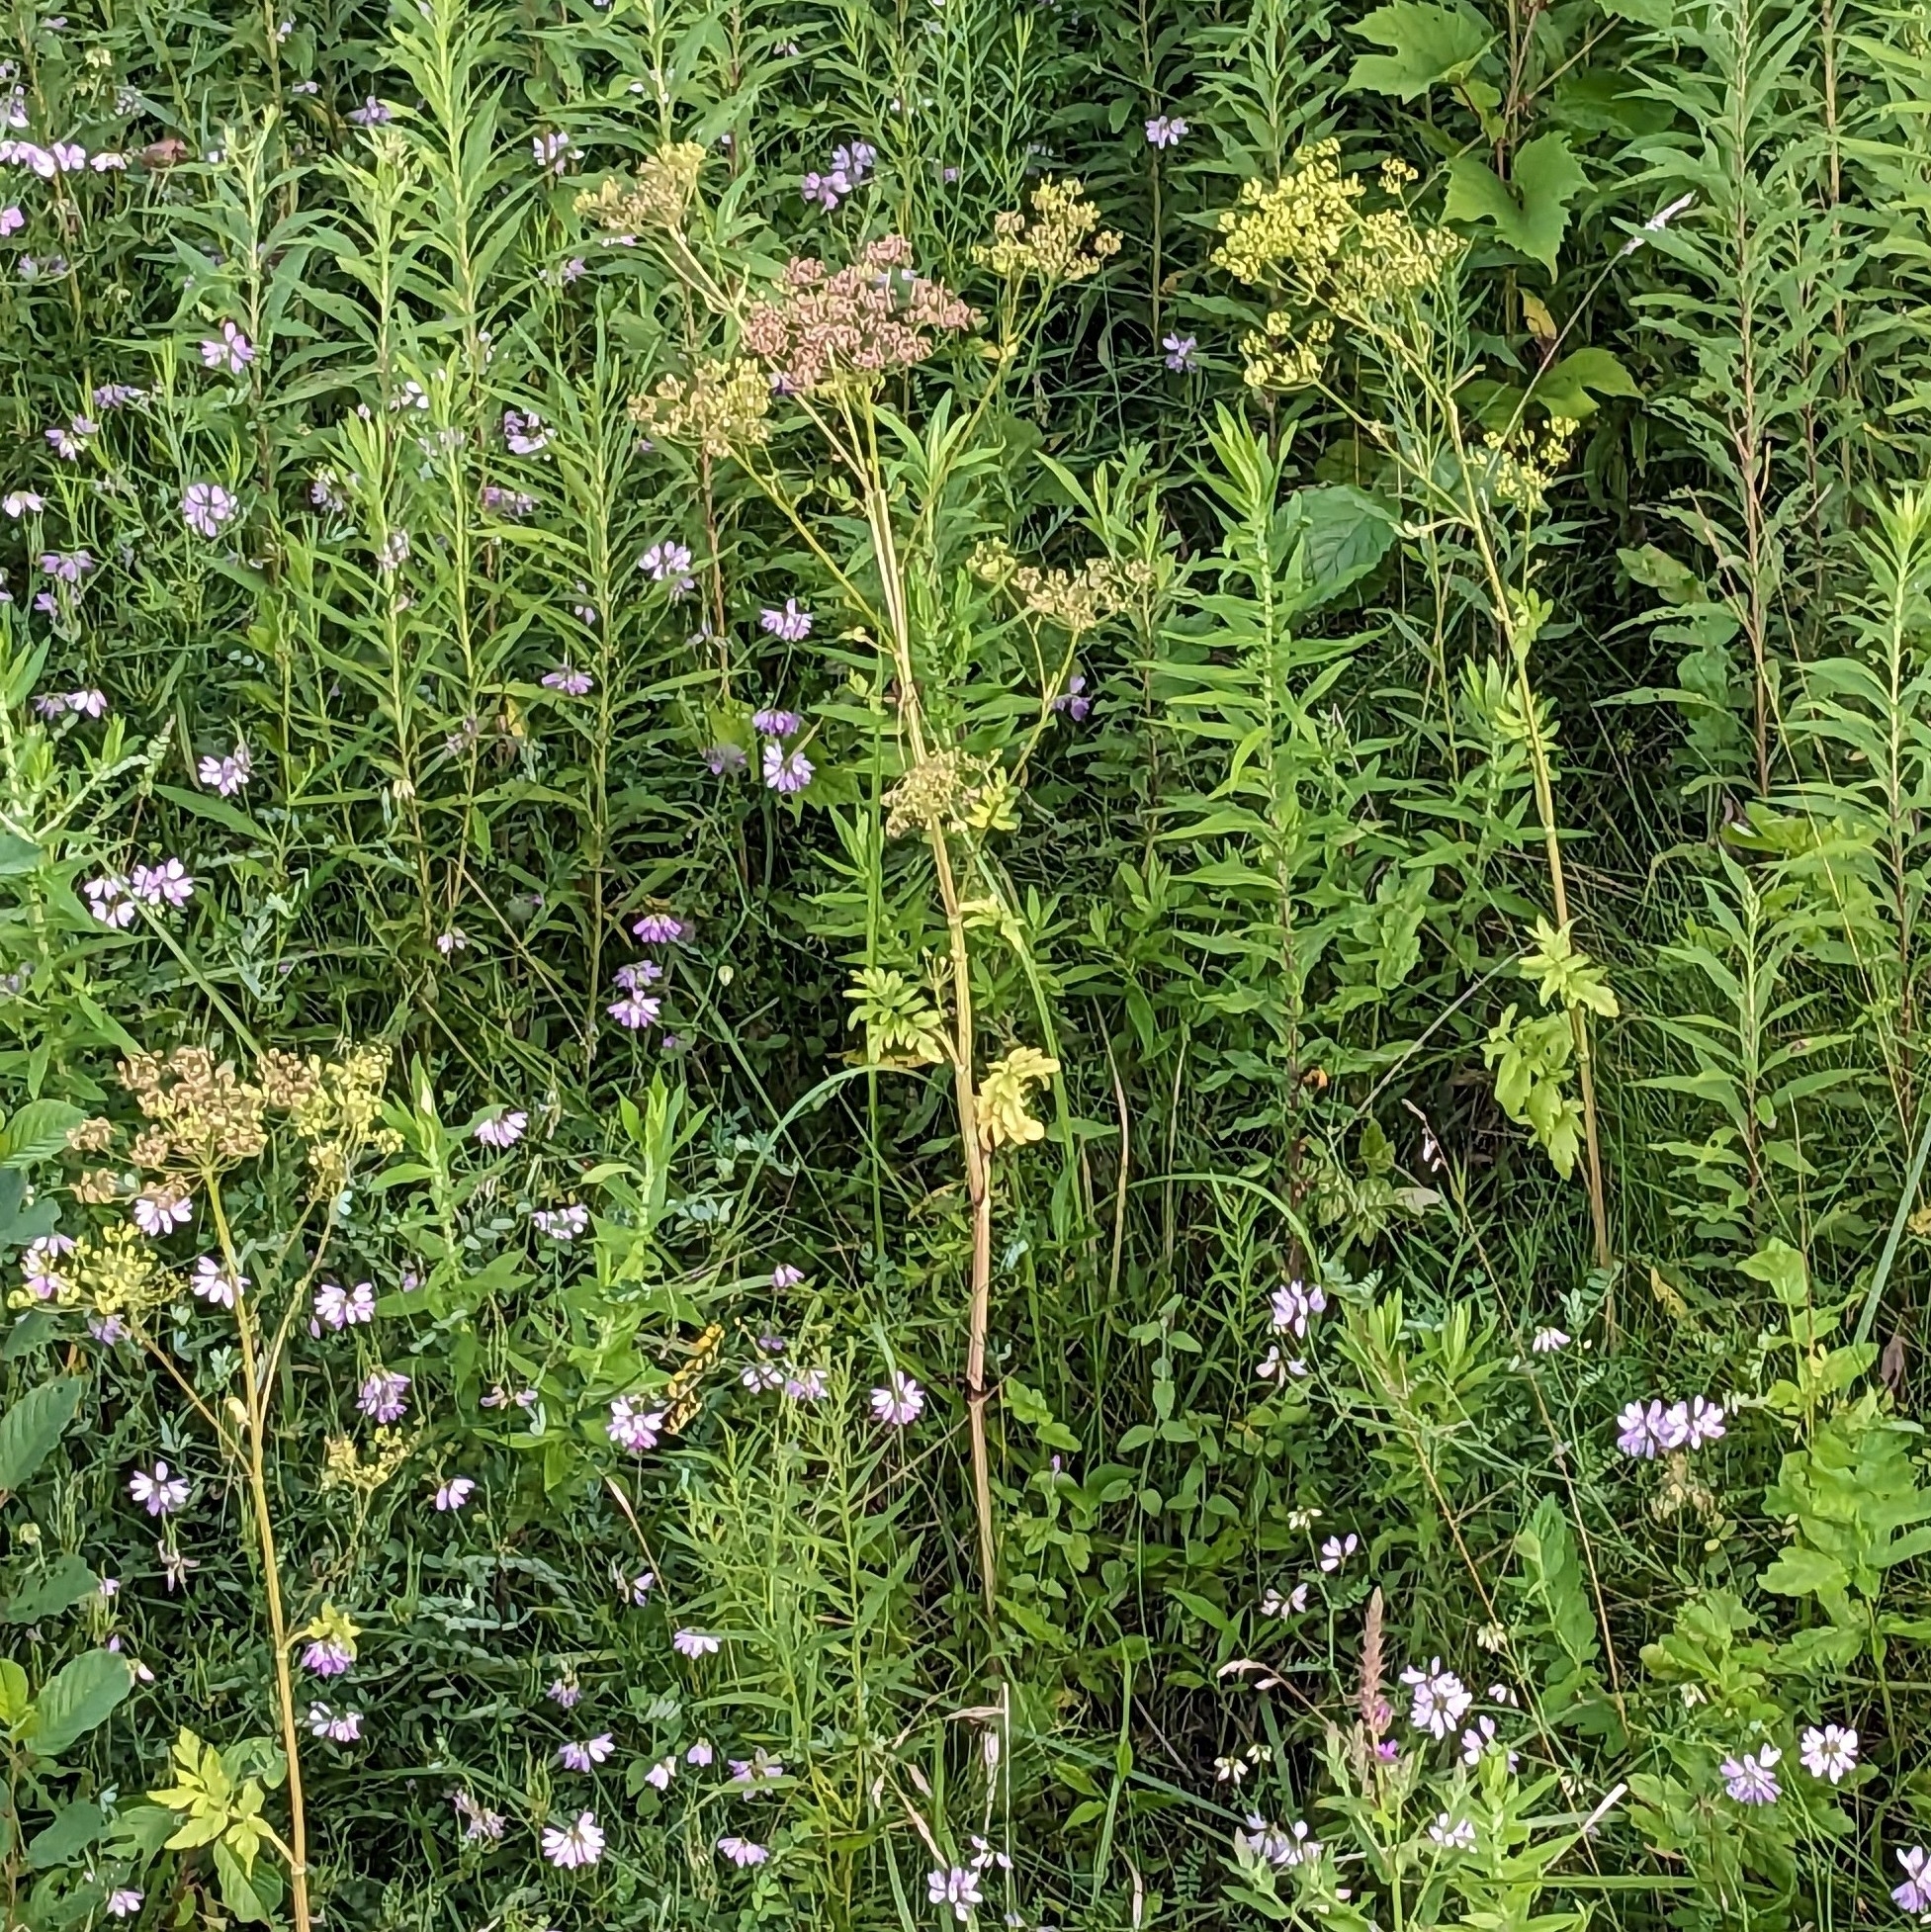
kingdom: Plantae
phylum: Tracheophyta
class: Magnoliopsida
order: Apiales
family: Apiaceae
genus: Pastinaca
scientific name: Pastinaca sativa
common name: Wild parsnip
